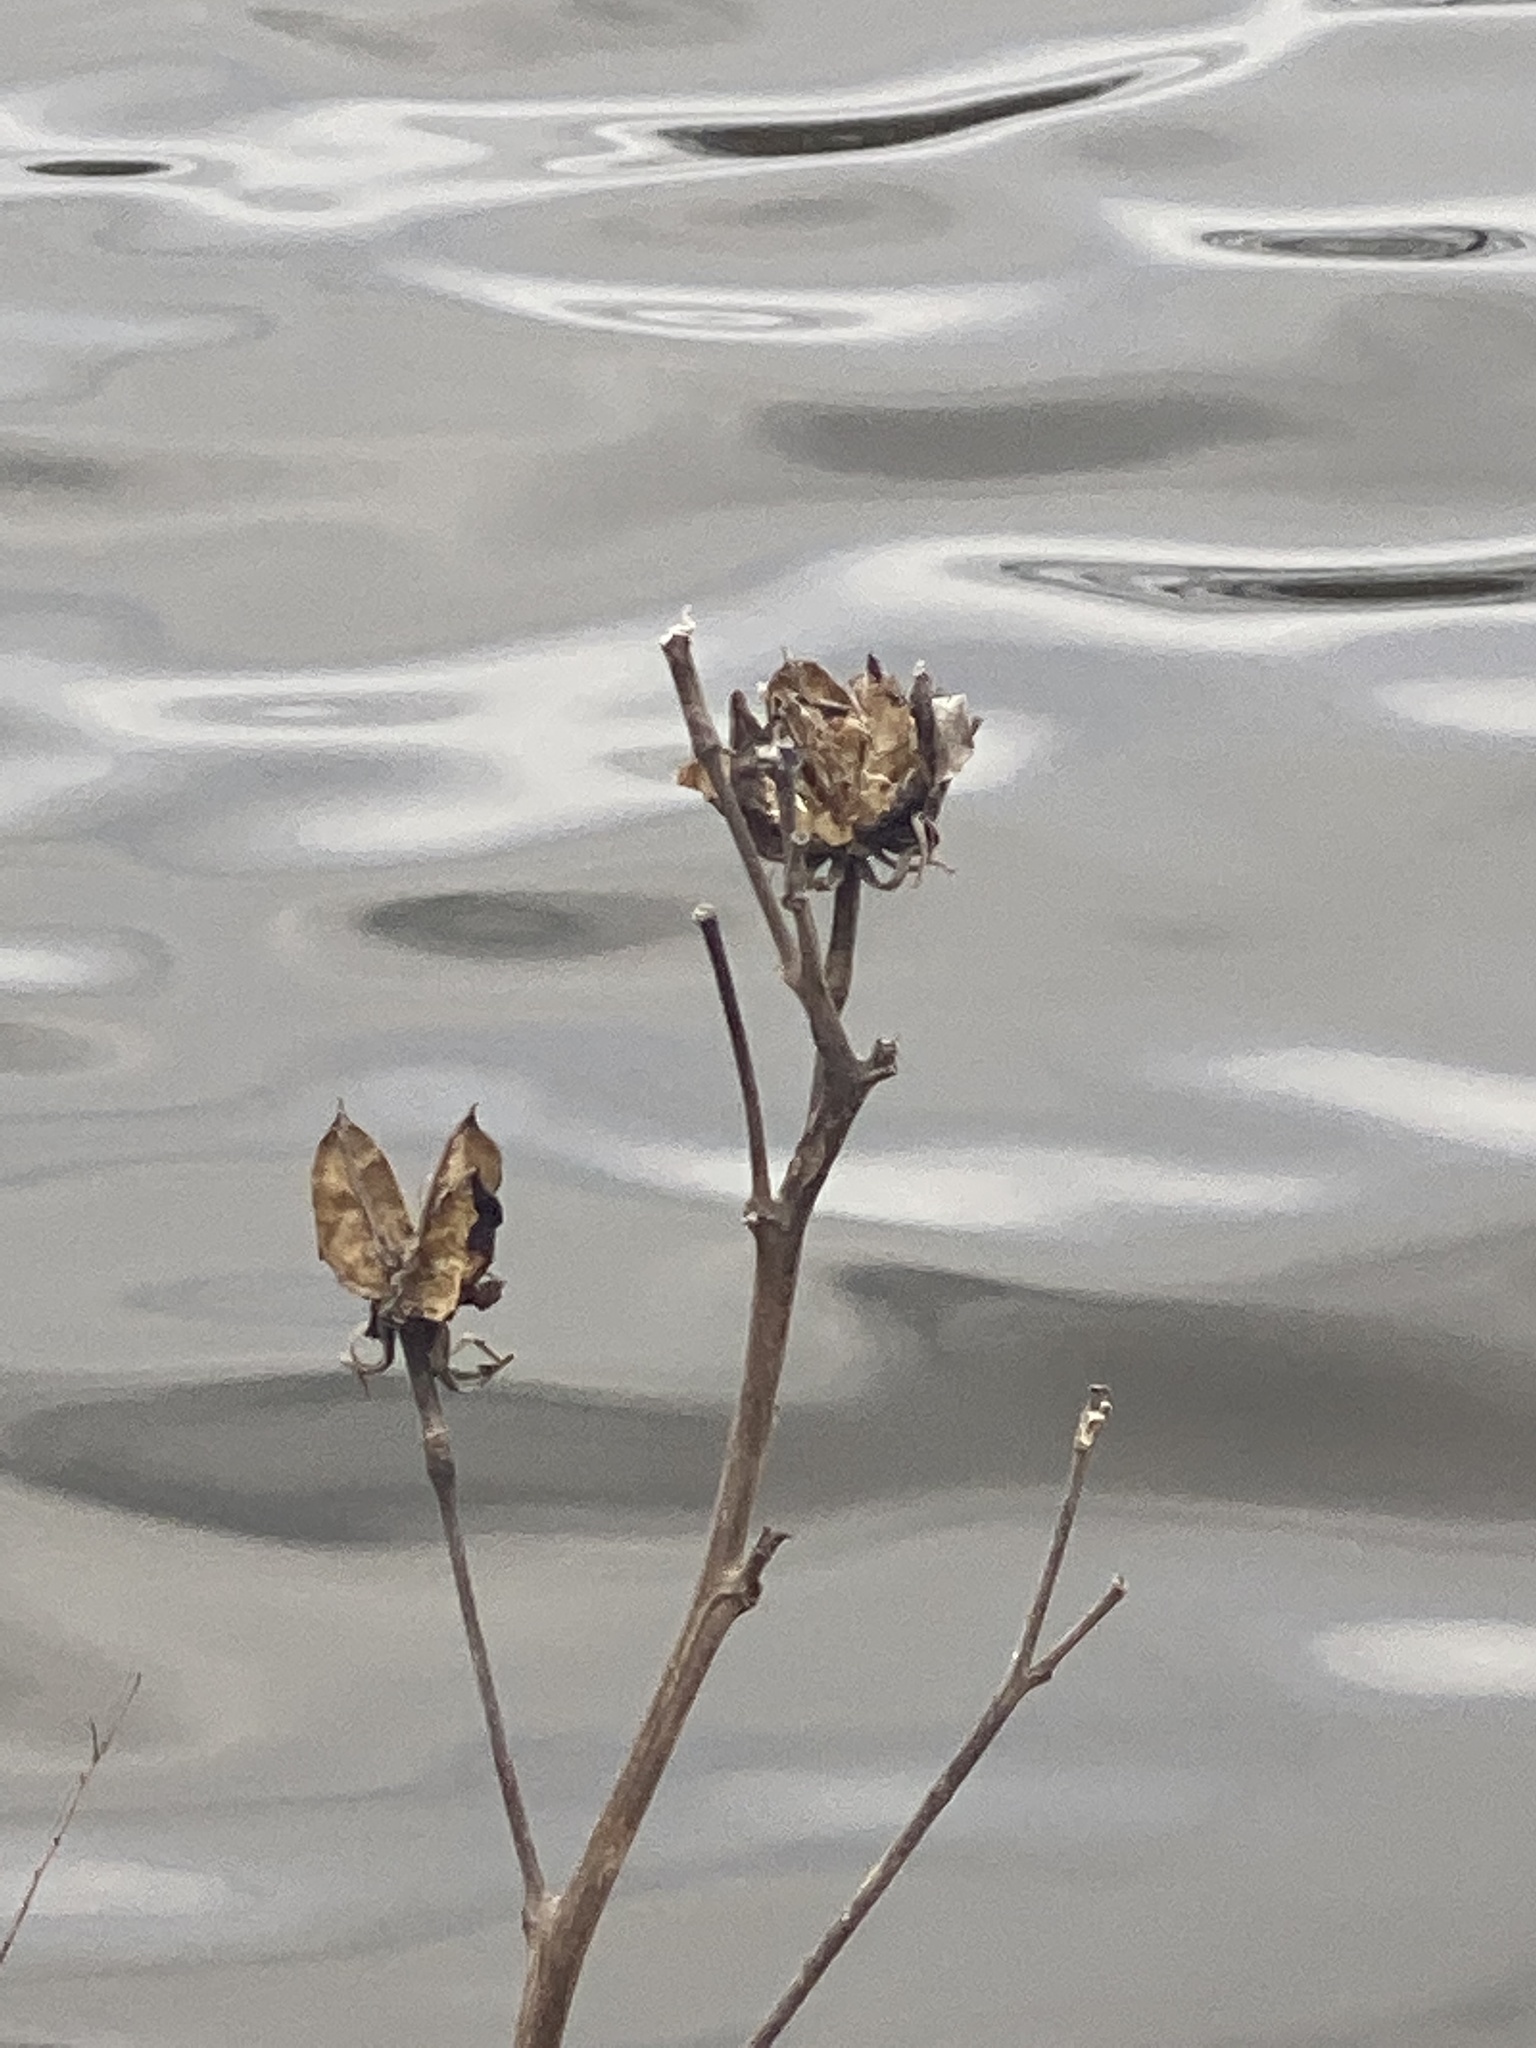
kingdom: Plantae
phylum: Tracheophyta
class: Magnoliopsida
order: Malvales
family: Malvaceae
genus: Hibiscus
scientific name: Hibiscus moscheutos
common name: Common rose-mallow
